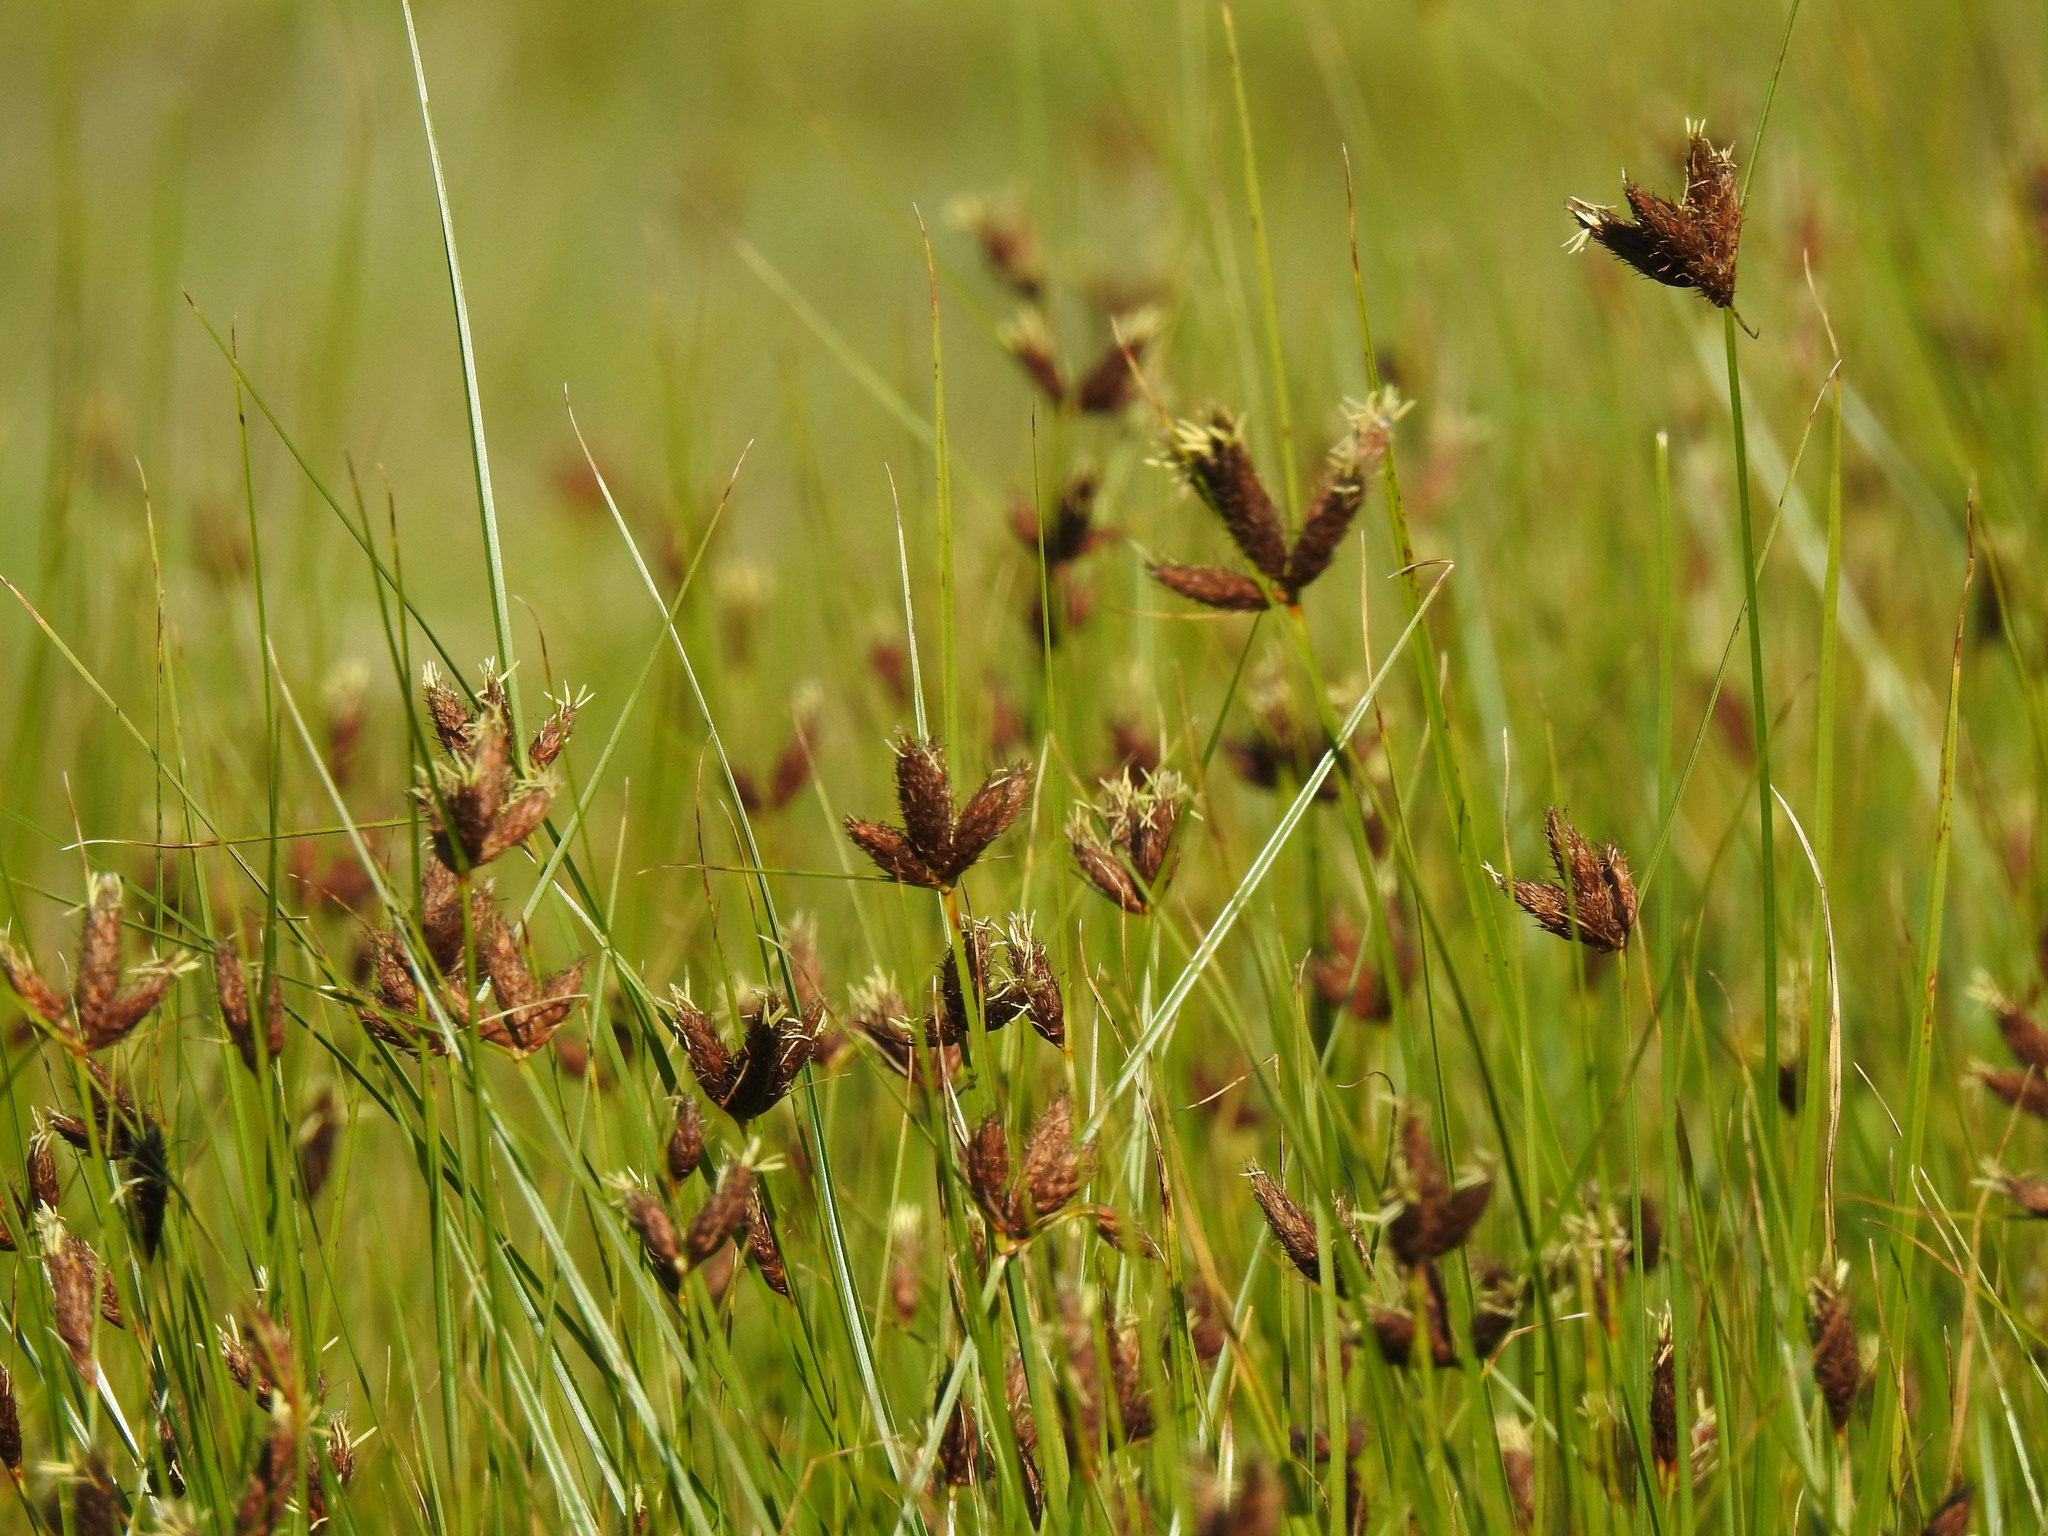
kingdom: Plantae
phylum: Tracheophyta
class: Liliopsida
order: Poales
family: Cyperaceae
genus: Bolboschoenus
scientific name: Bolboschoenus maritimus
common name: Sea club-rush
